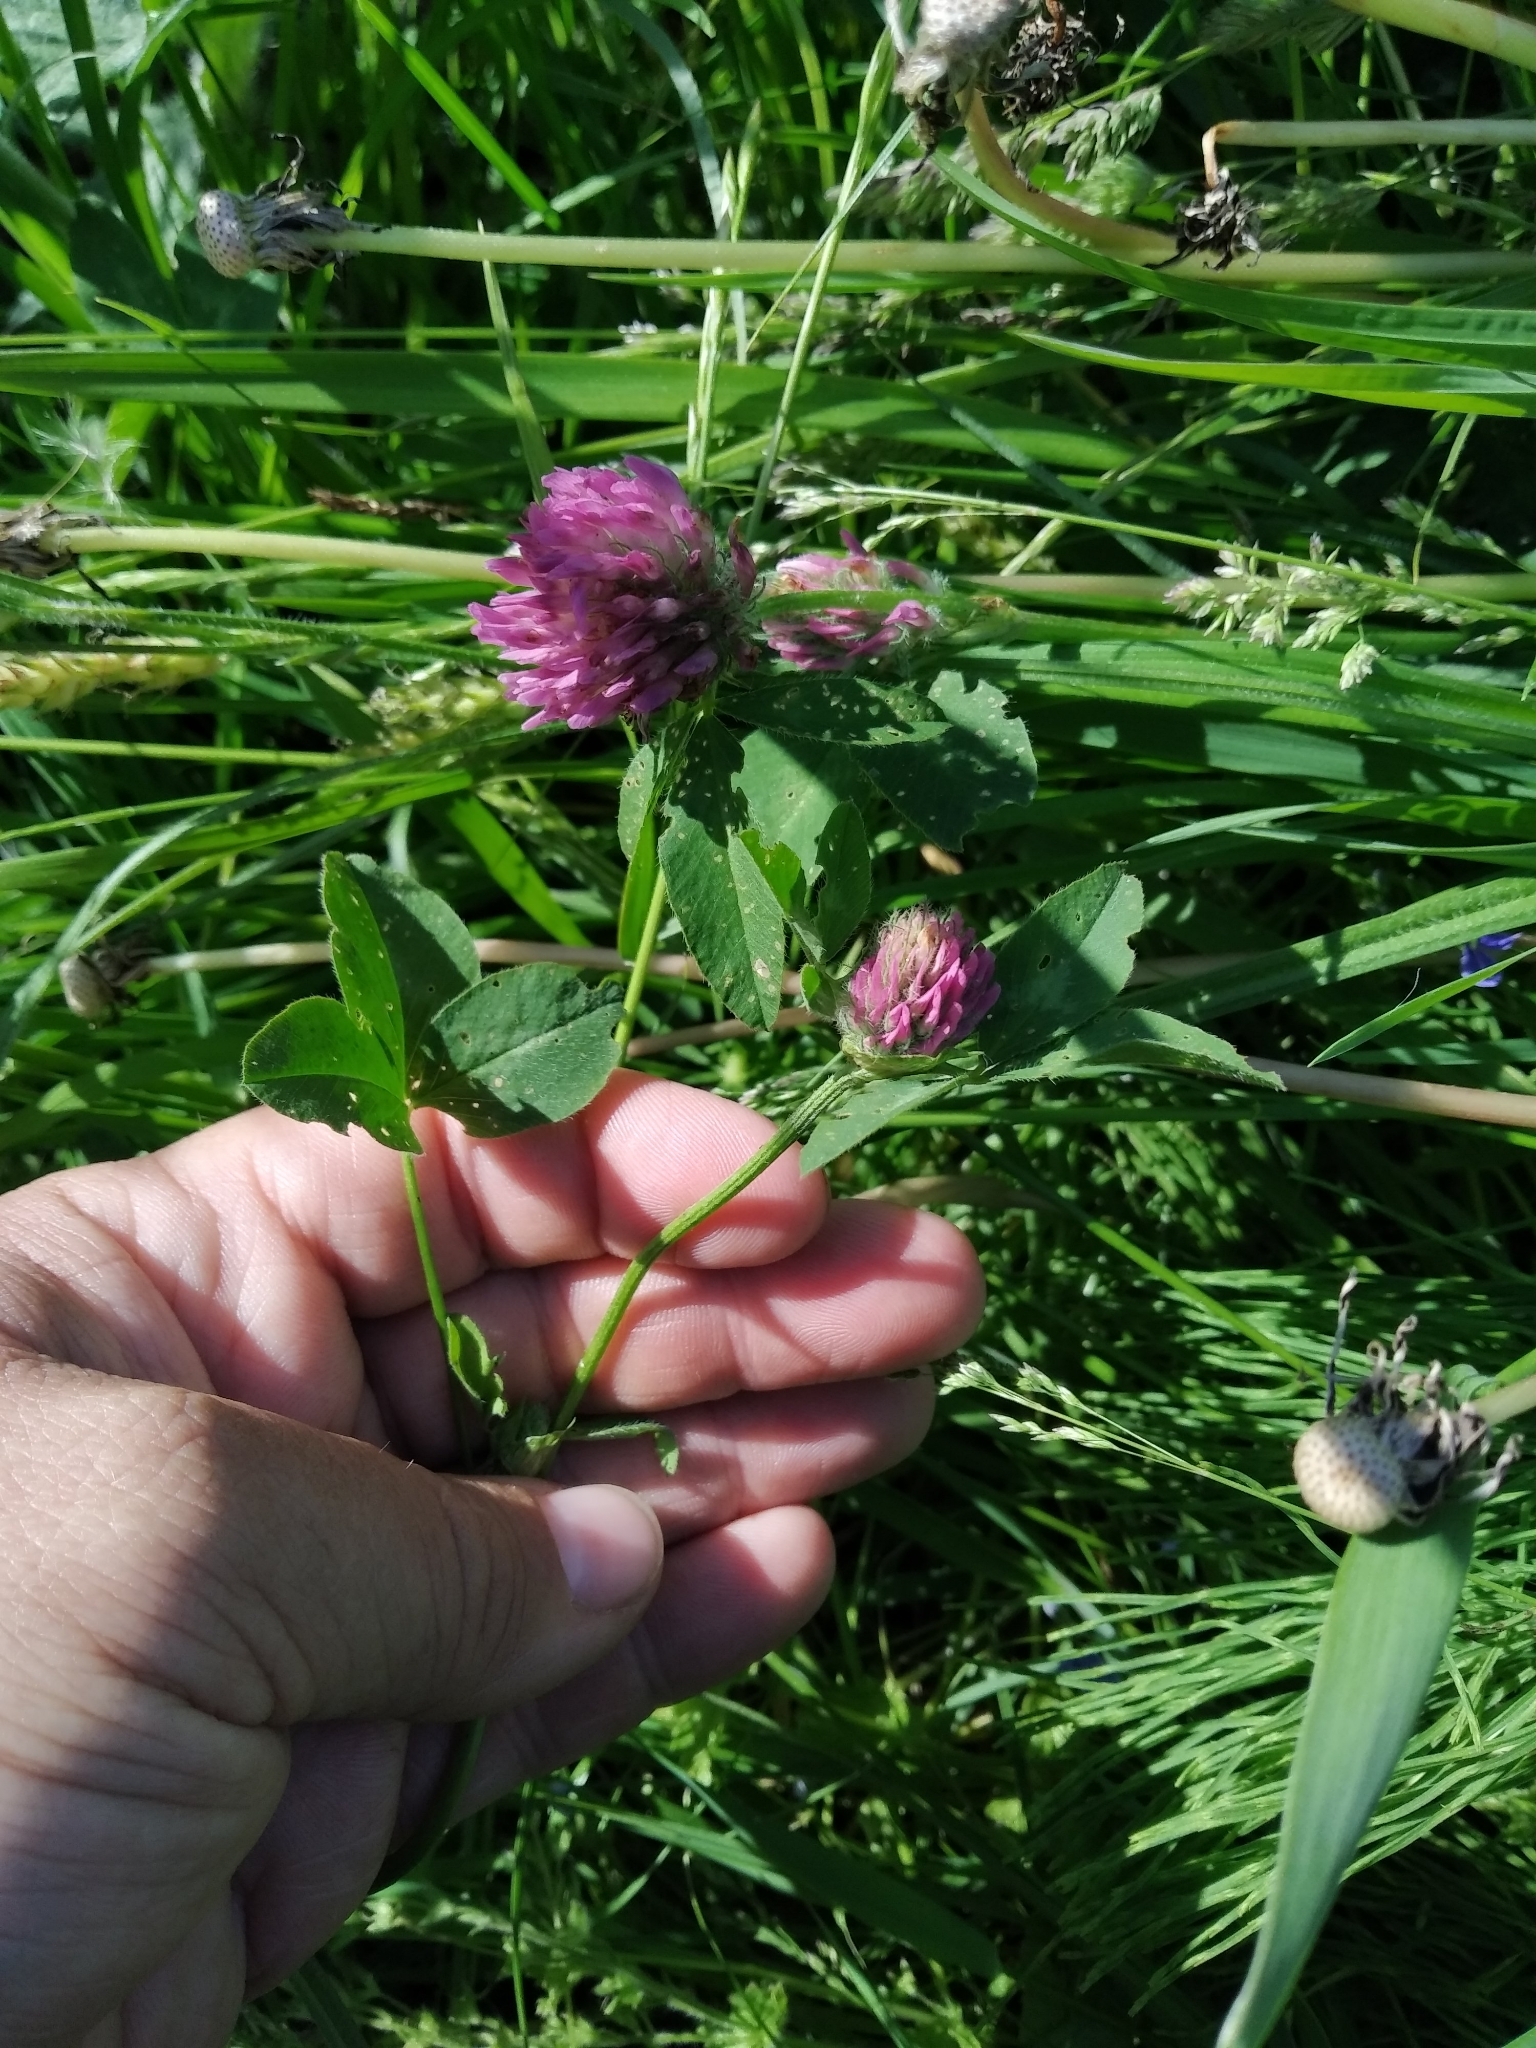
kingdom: Plantae
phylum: Tracheophyta
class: Magnoliopsida
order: Fabales
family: Fabaceae
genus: Trifolium
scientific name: Trifolium pratense
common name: Red clover
